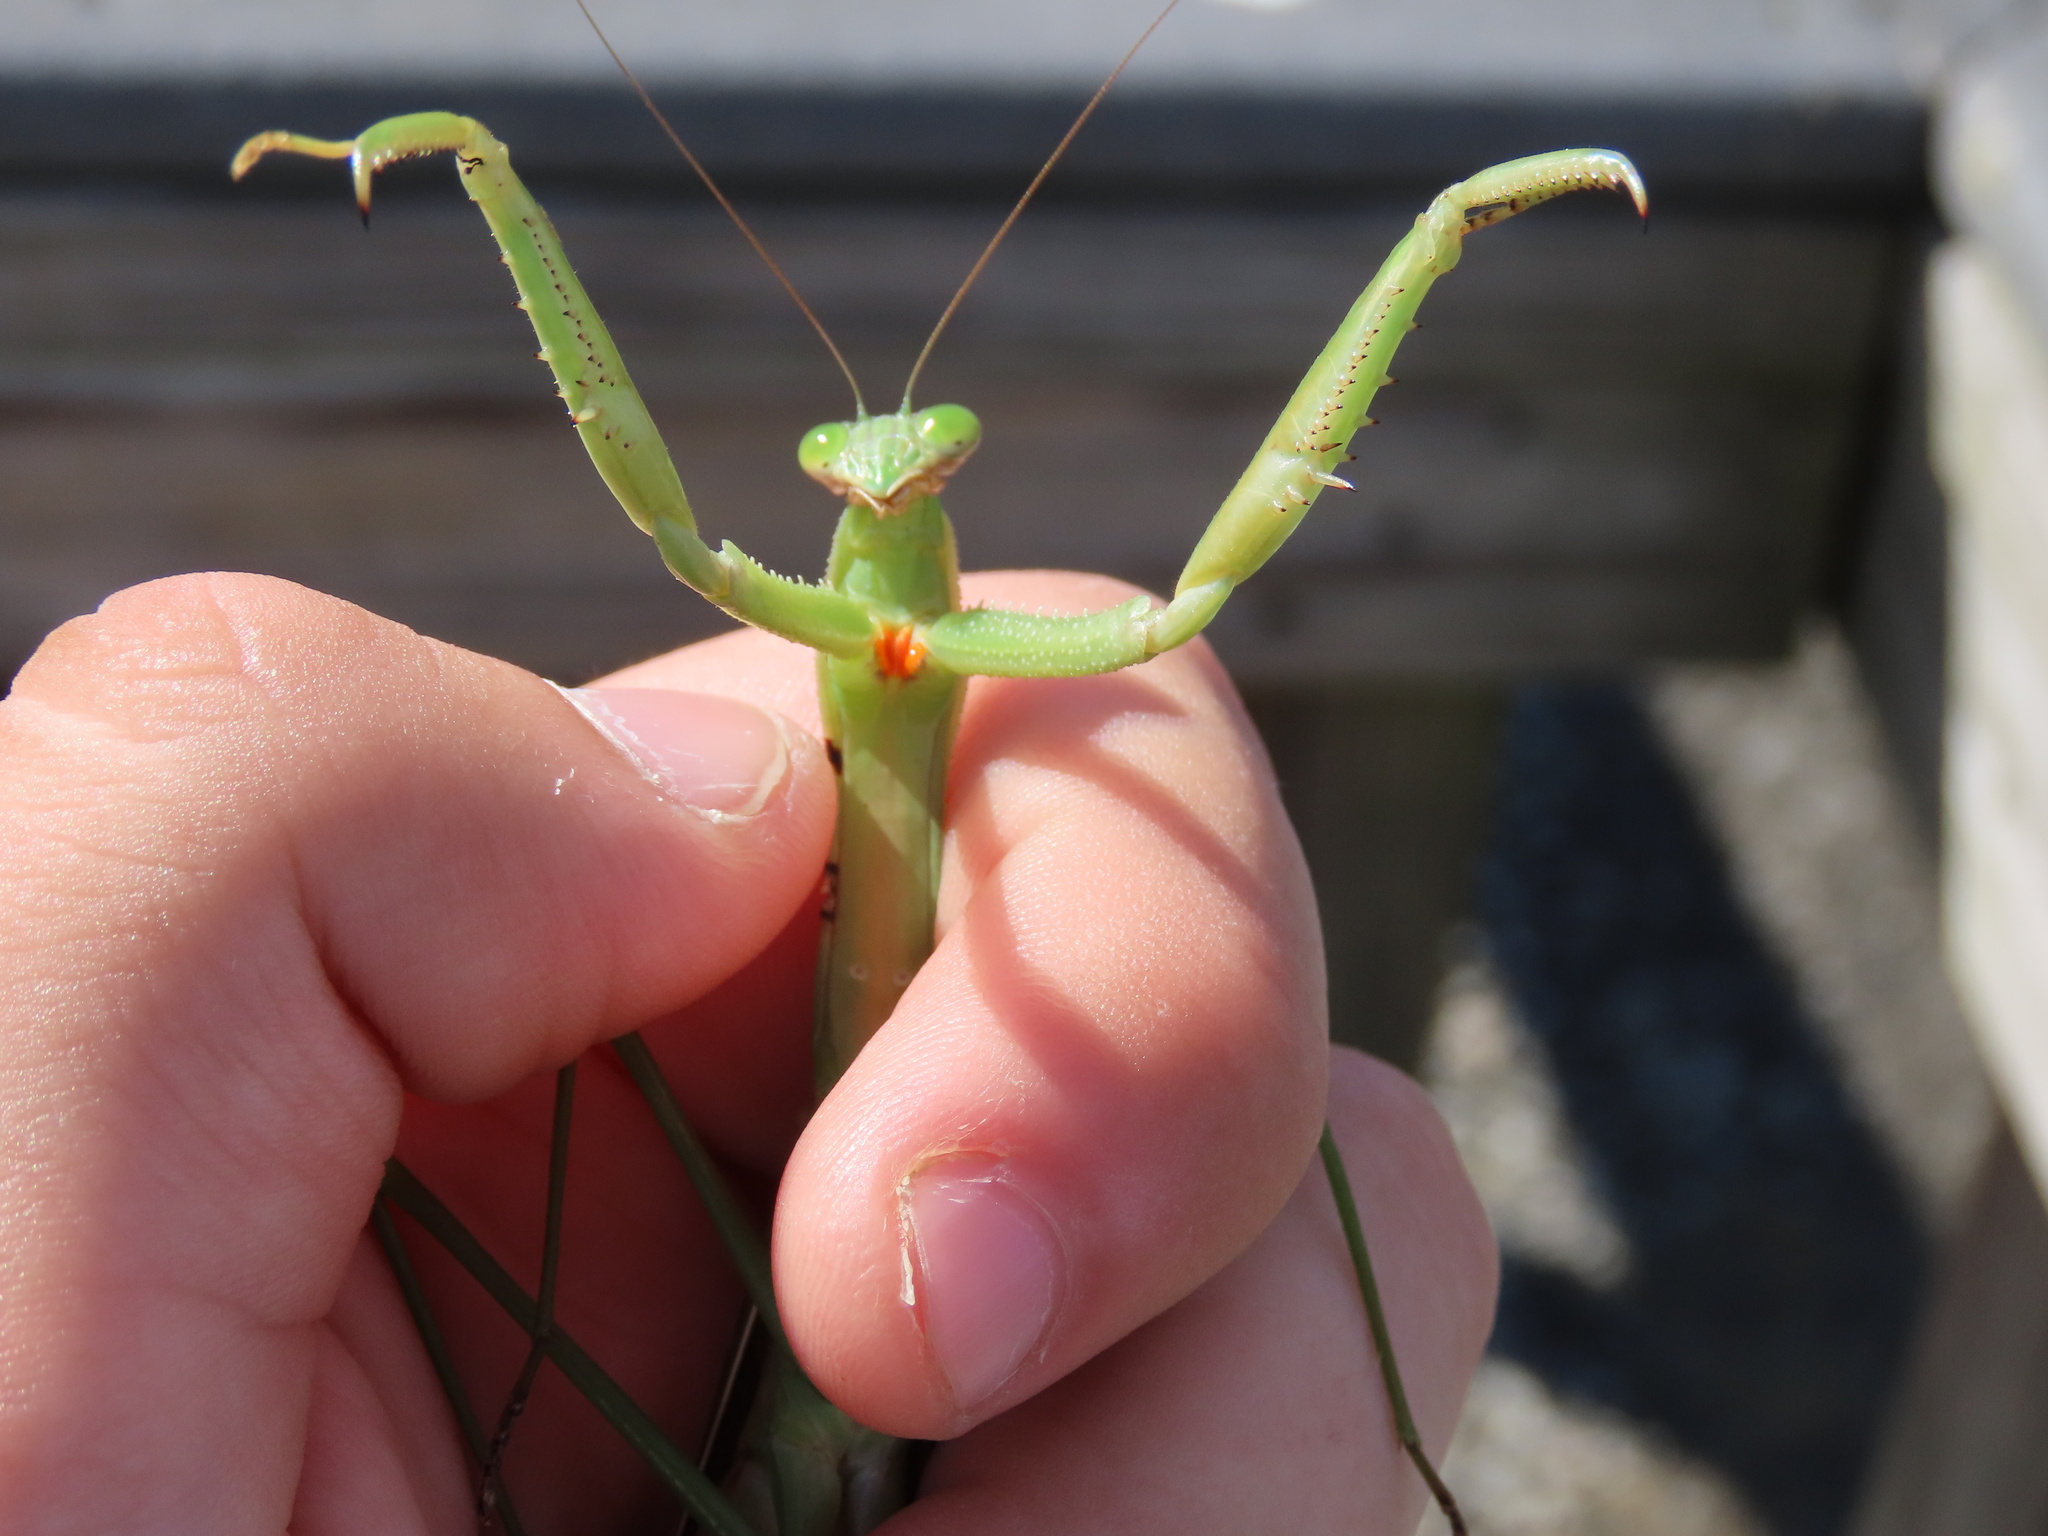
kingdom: Animalia
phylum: Arthropoda
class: Insecta
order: Mantodea
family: Mantidae
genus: Tenodera
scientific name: Tenodera angustipennis
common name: Asian mantis
